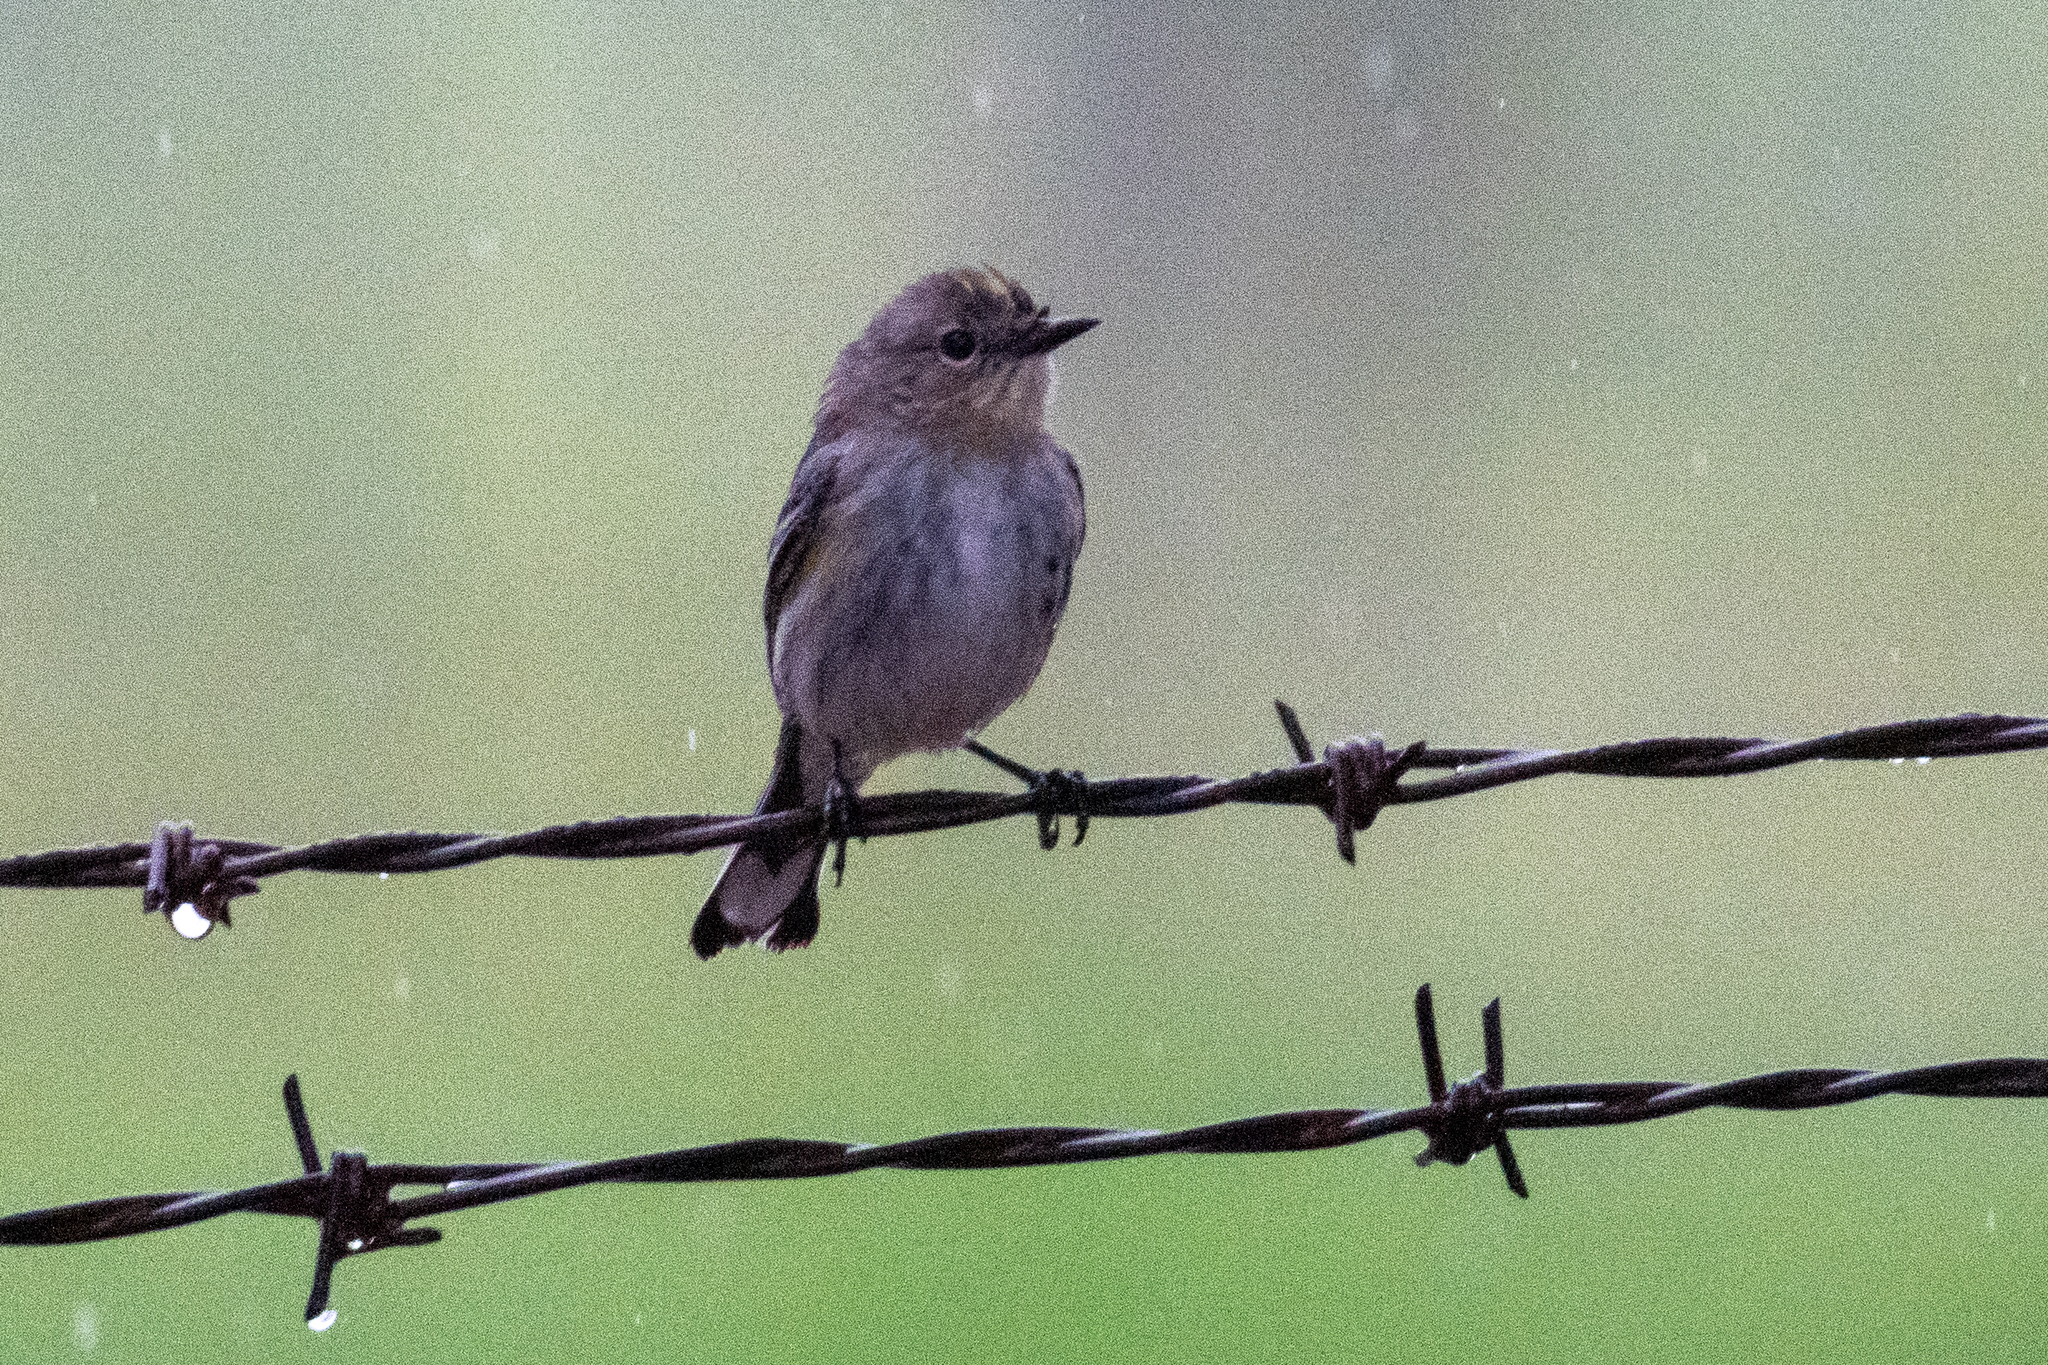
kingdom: Animalia
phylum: Chordata
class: Aves
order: Passeriformes
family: Parulidae
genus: Setophaga
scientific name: Setophaga coronata
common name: Myrtle warbler
